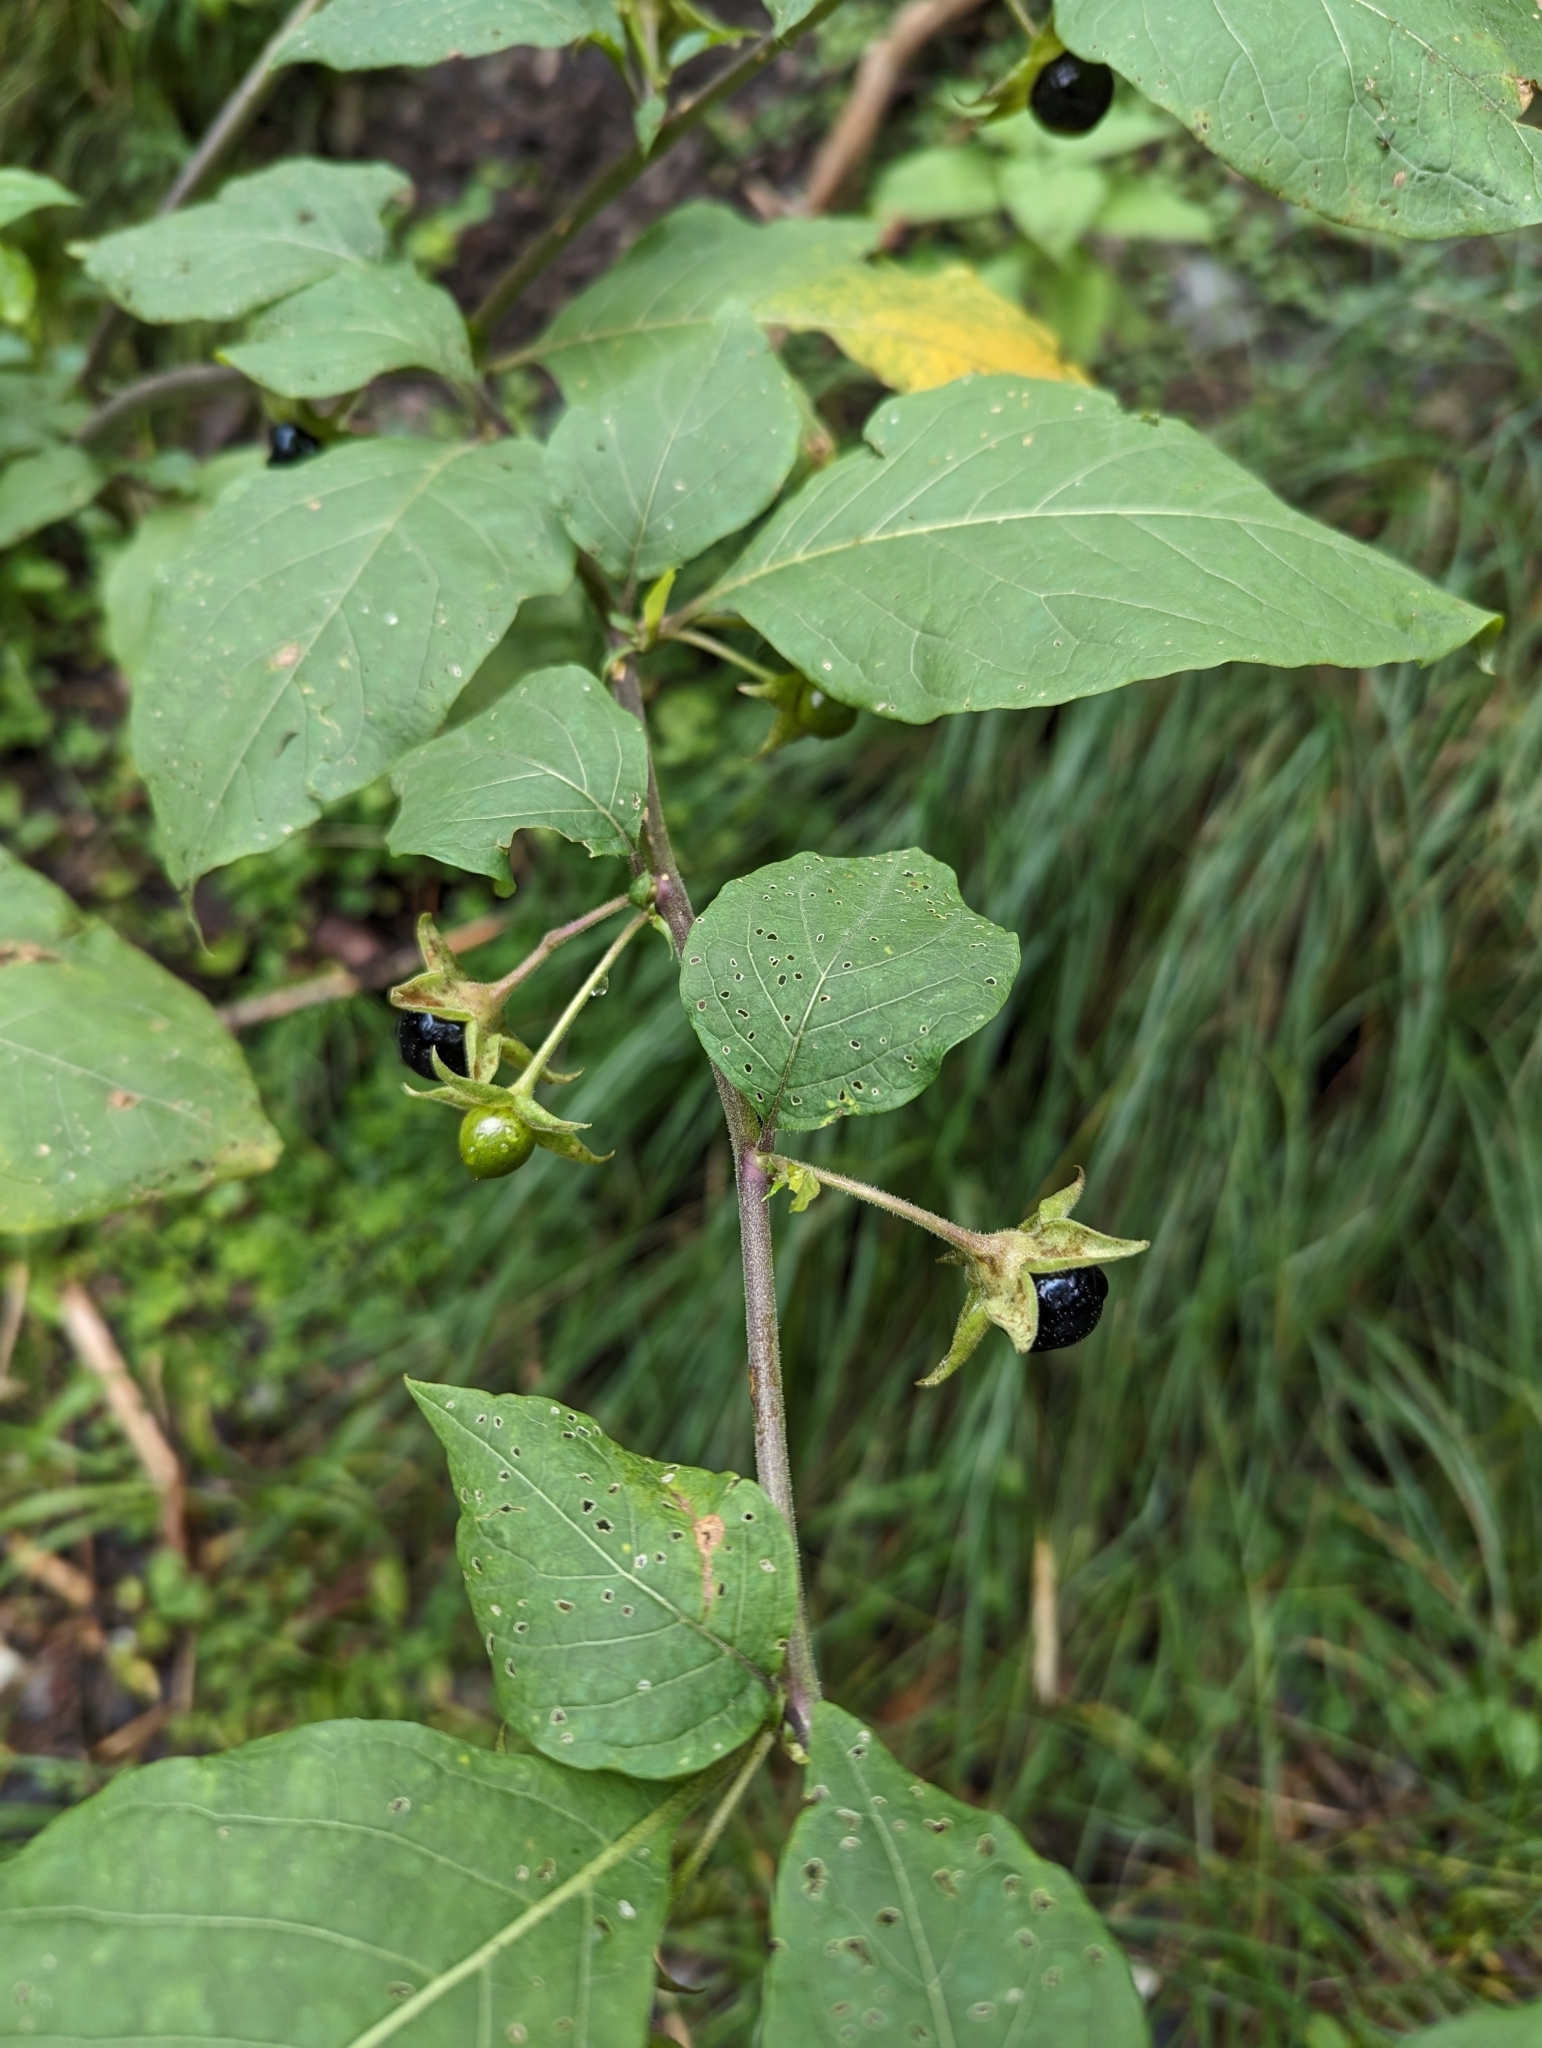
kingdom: Plantae
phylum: Tracheophyta
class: Magnoliopsida
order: Solanales
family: Solanaceae
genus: Atropa
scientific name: Atropa belladonna
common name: Deadly nightshade
